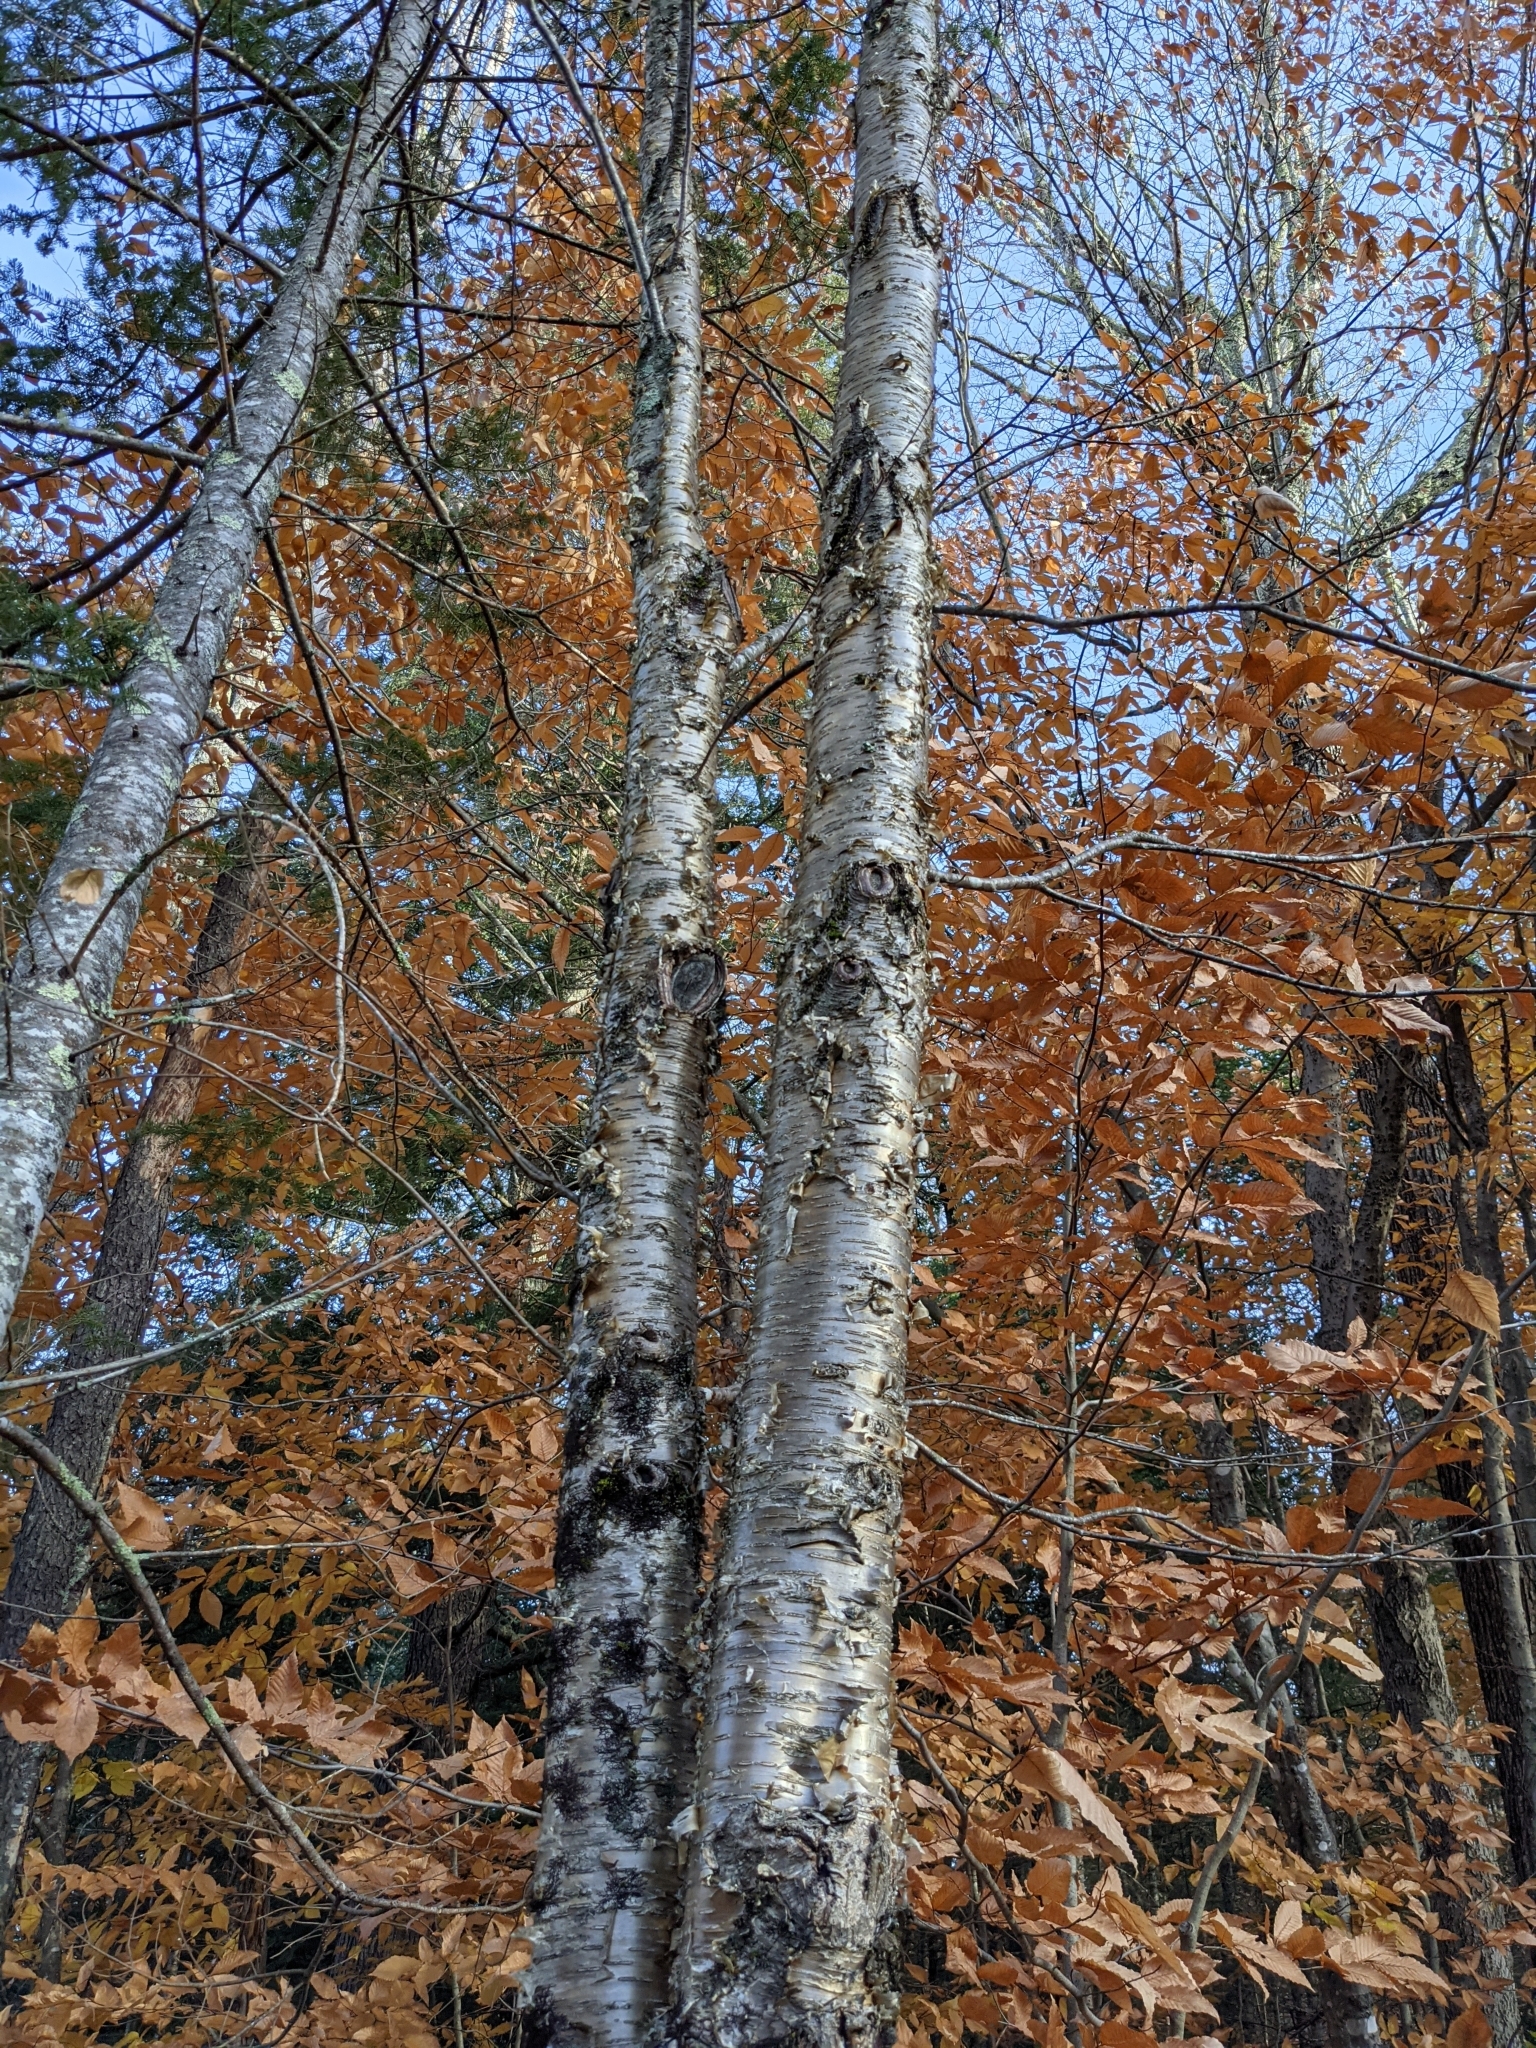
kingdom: Plantae
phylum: Tracheophyta
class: Magnoliopsida
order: Fagales
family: Betulaceae
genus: Betula
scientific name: Betula alleghaniensis
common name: Yellow birch
